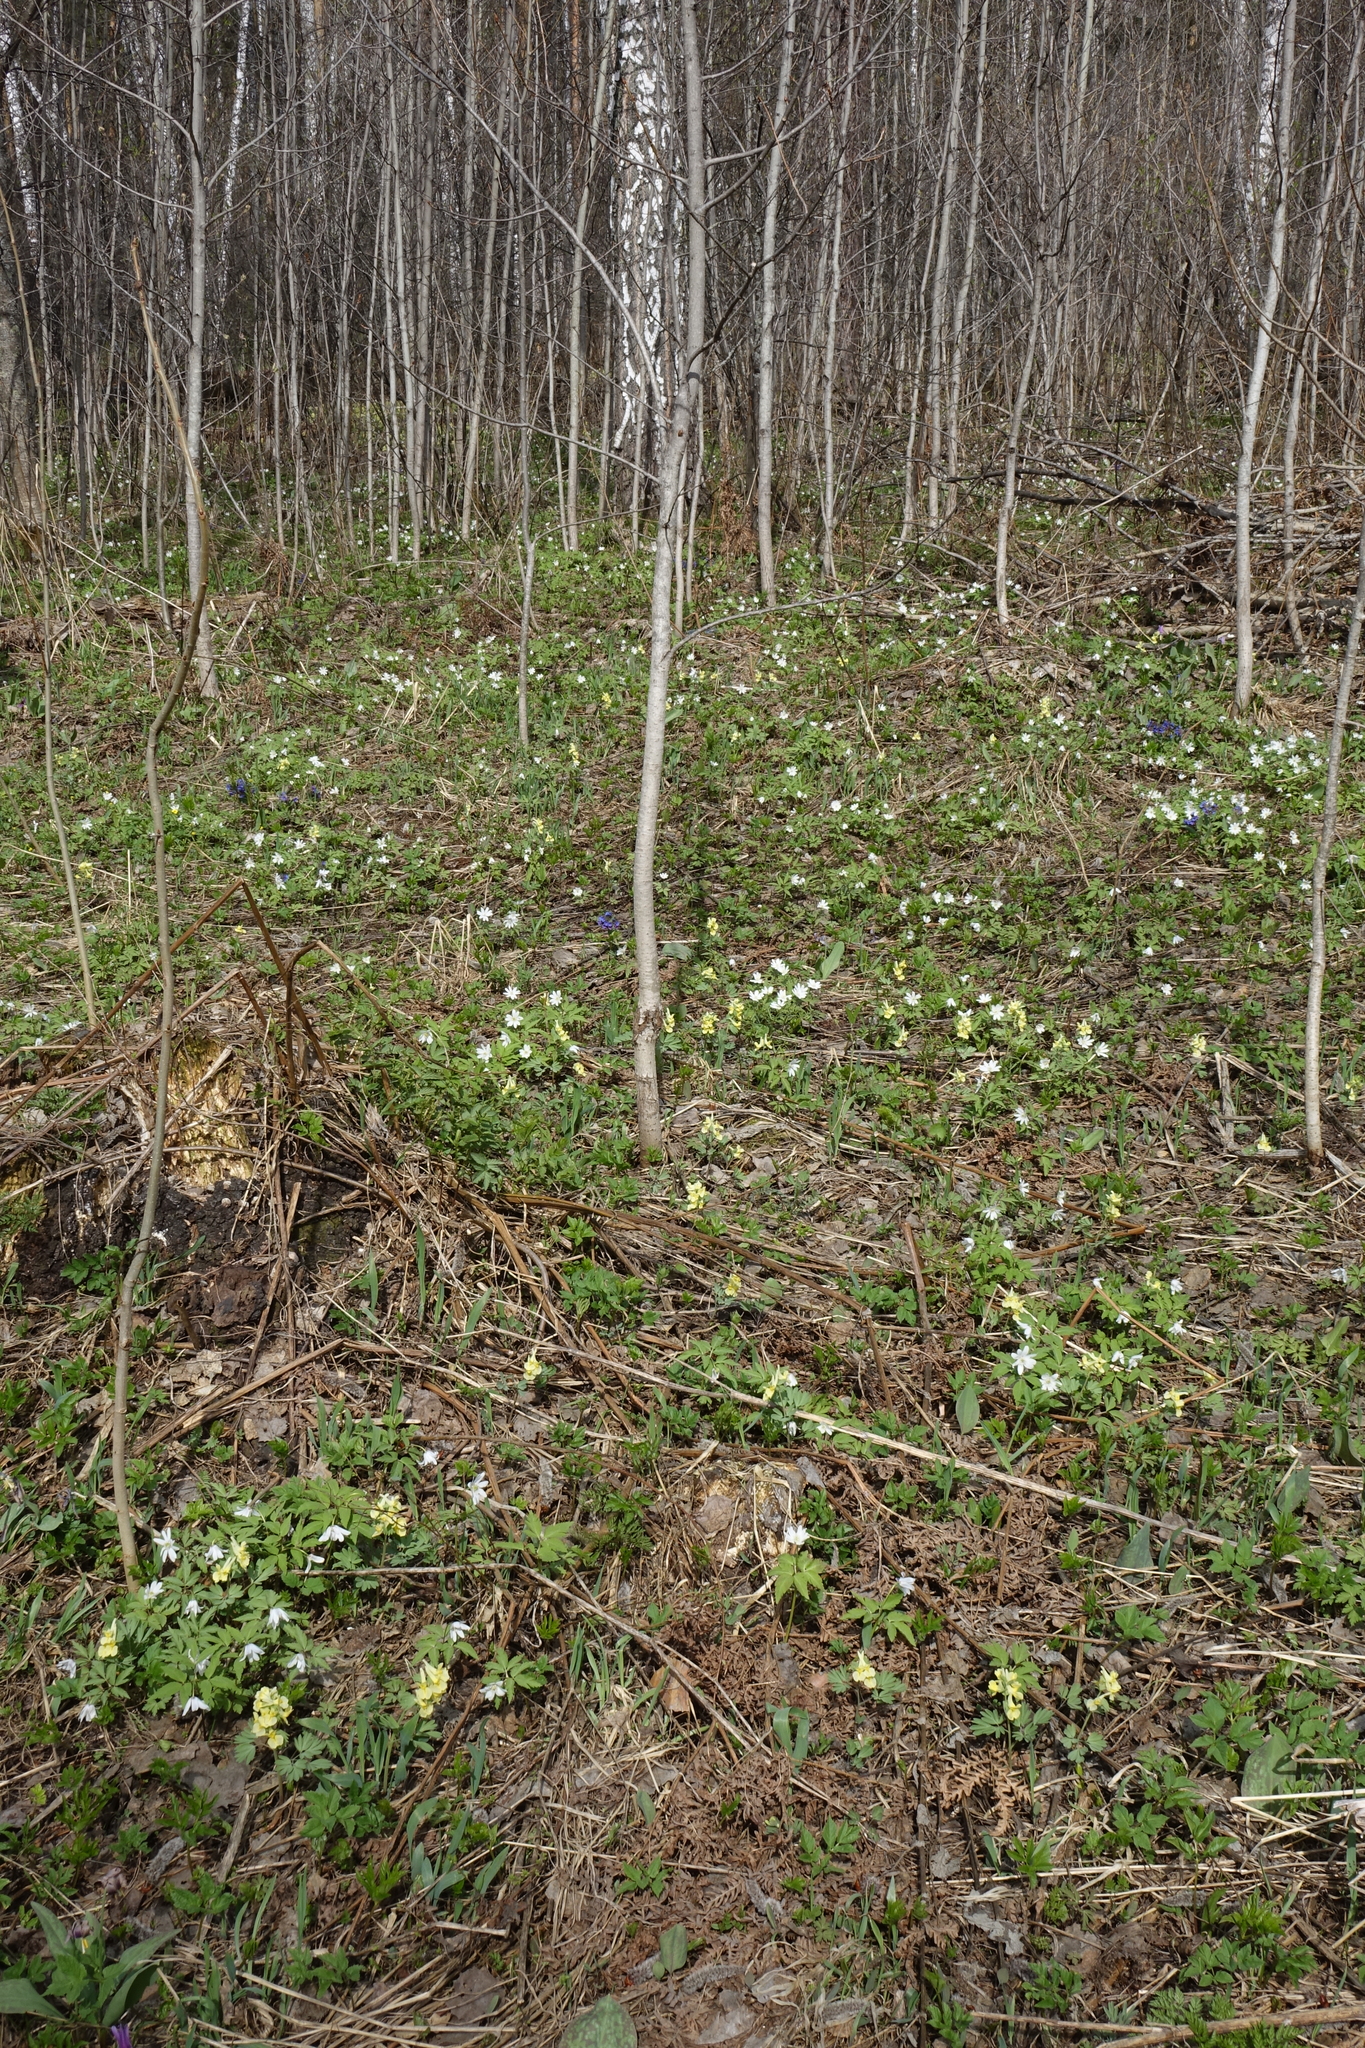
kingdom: Plantae
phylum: Tracheophyta
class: Magnoliopsida
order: Ranunculales
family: Papaveraceae
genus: Corydalis
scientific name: Corydalis bracteata
